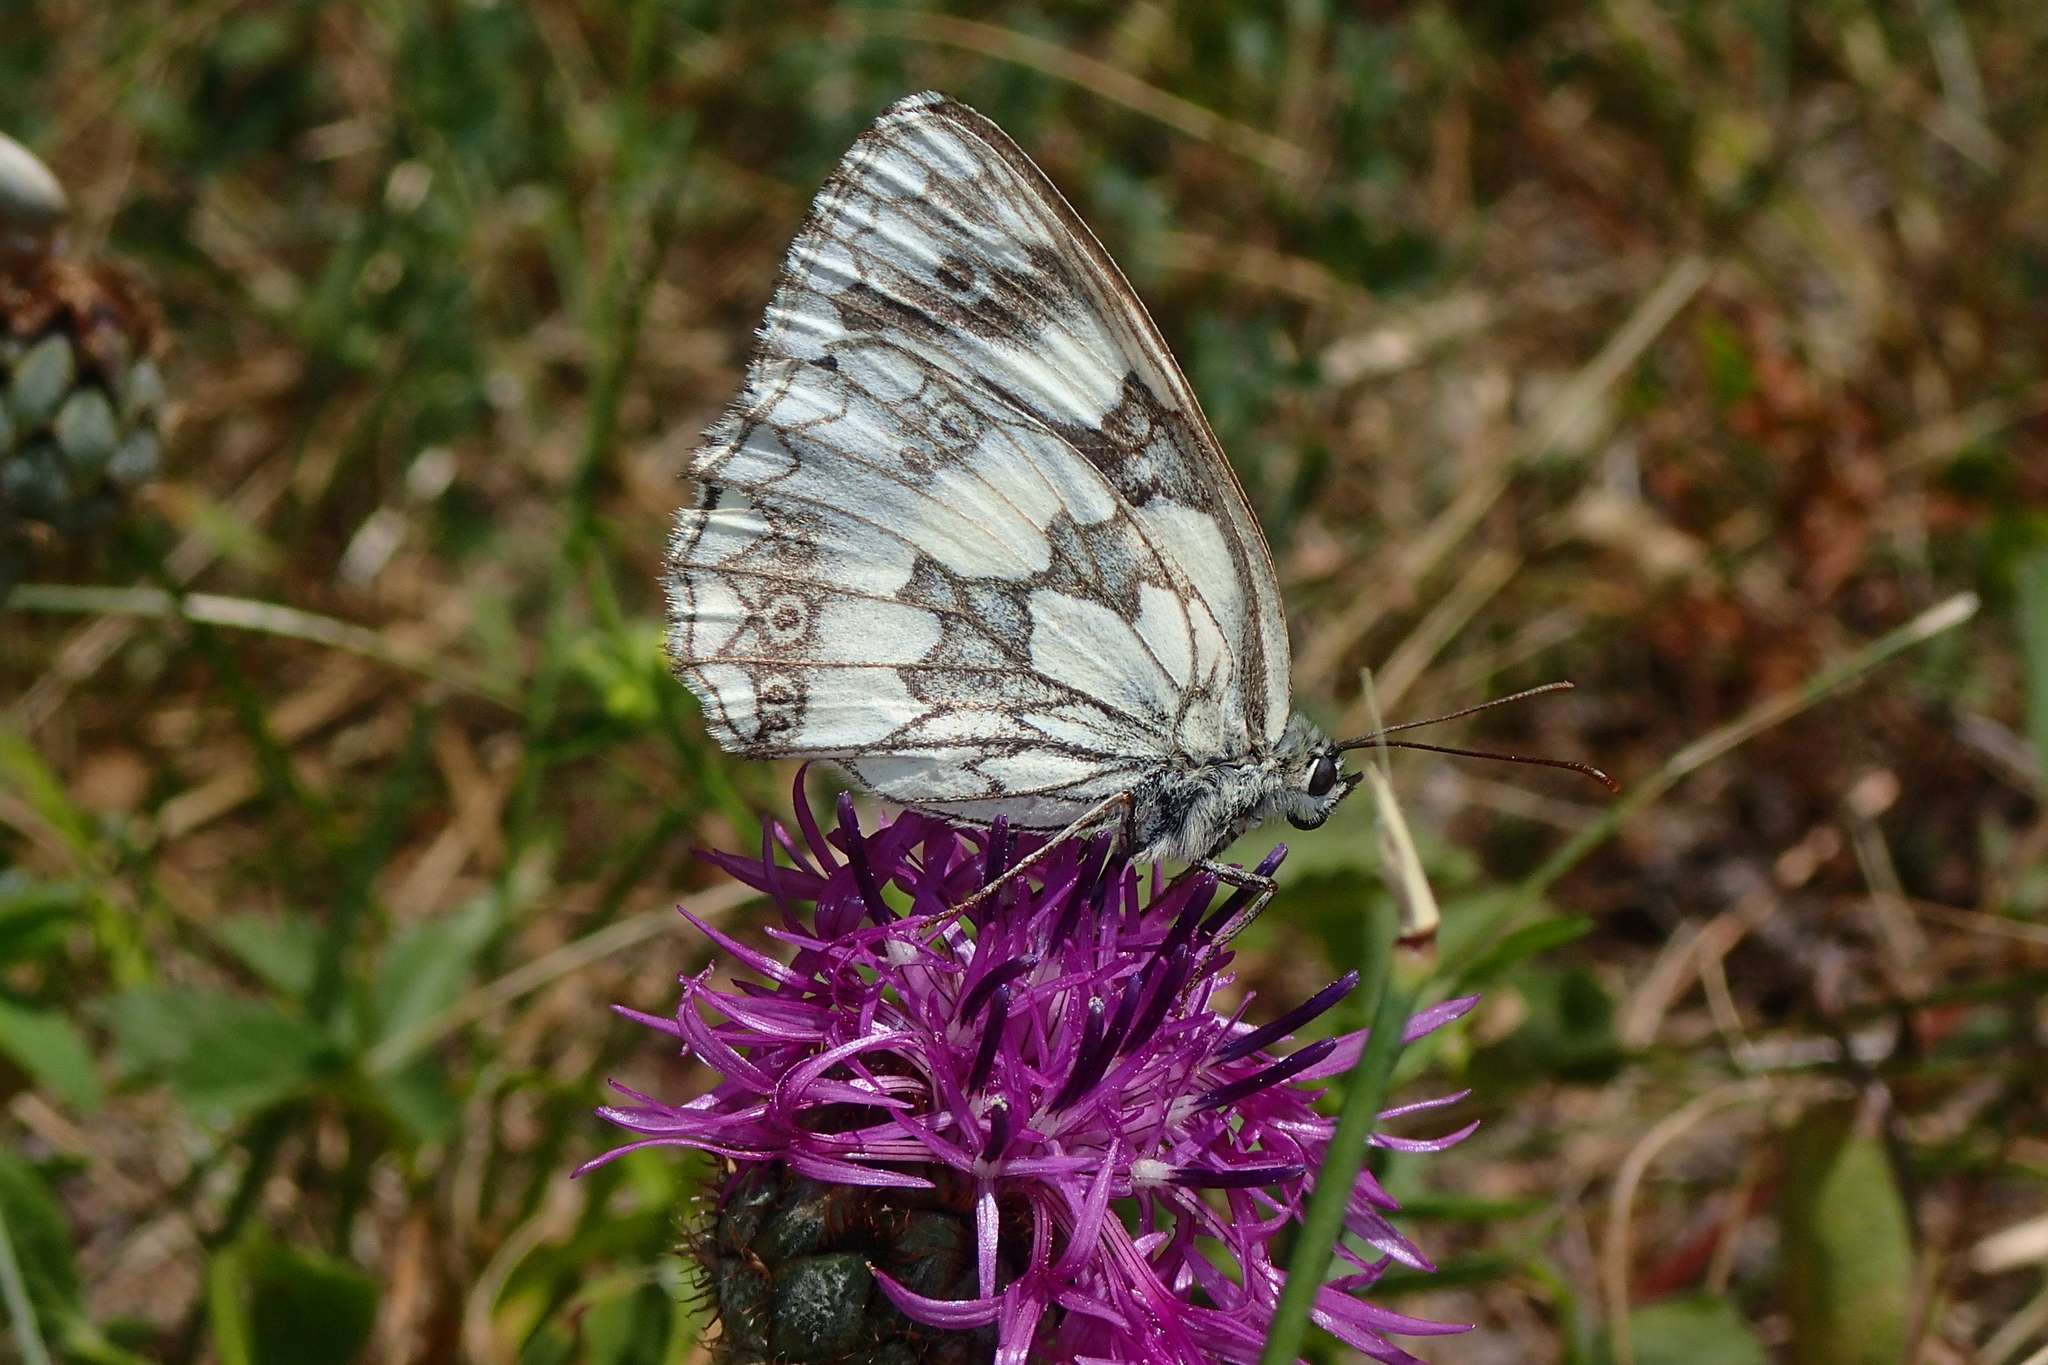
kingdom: Animalia
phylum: Arthropoda
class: Insecta
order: Lepidoptera
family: Nymphalidae
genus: Melanargia
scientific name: Melanargia galathea
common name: Marbled white
